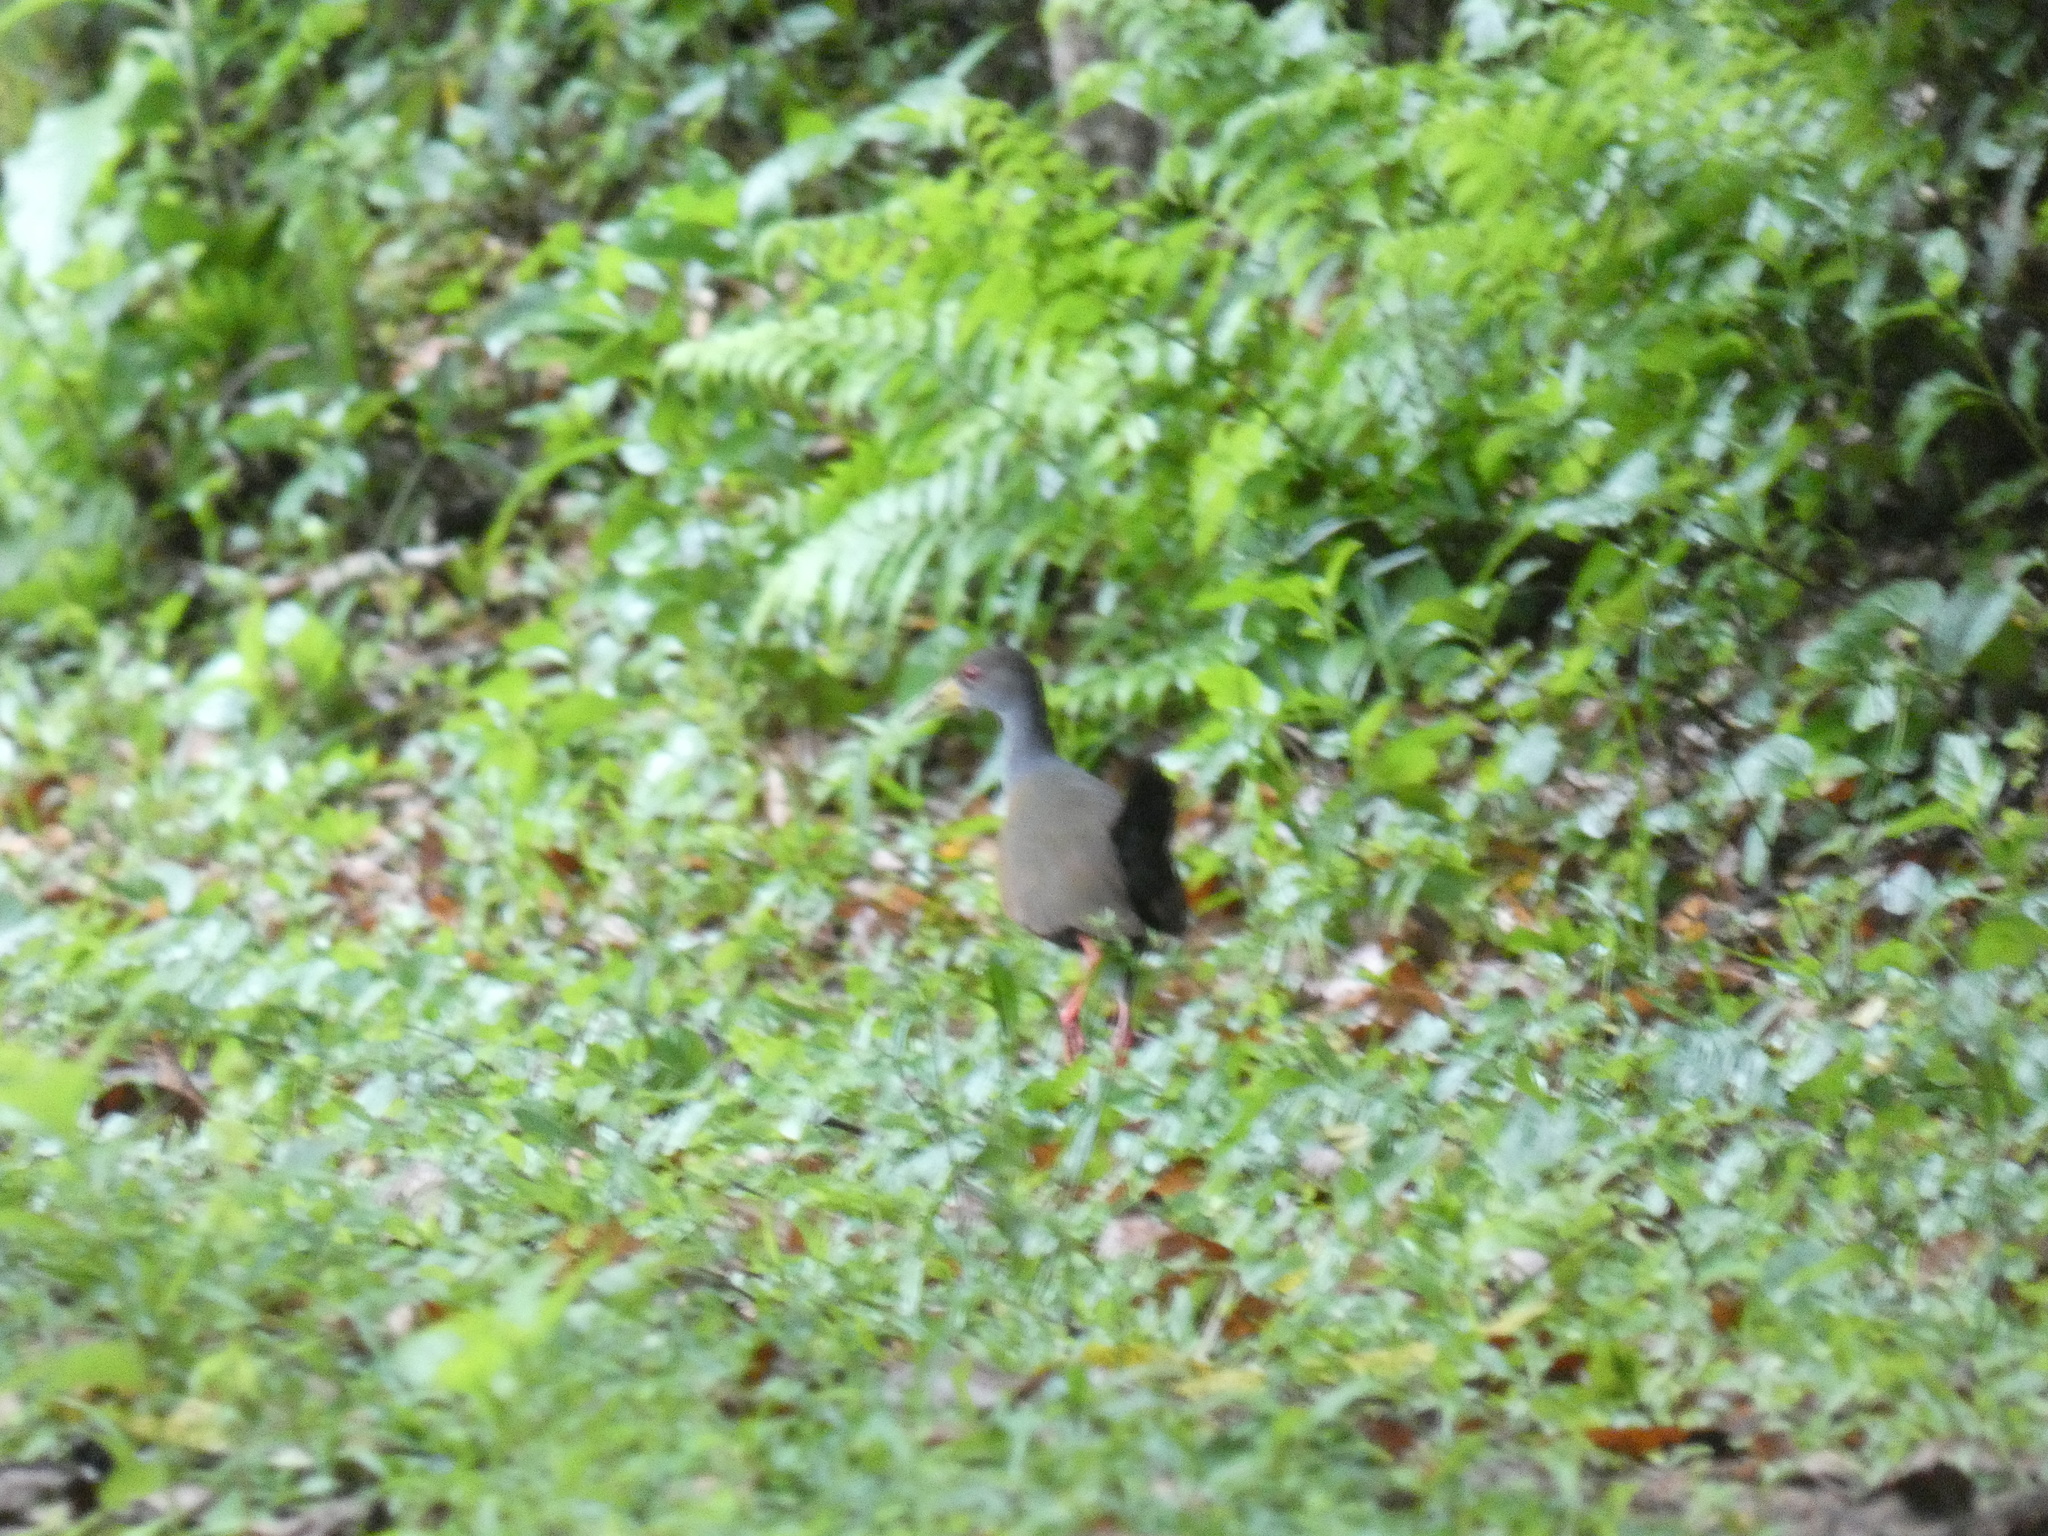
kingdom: Animalia
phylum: Chordata
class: Aves
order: Gruiformes
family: Rallidae
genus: Aramides
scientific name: Aramides cajanea
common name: Gray-necked wood-rail
